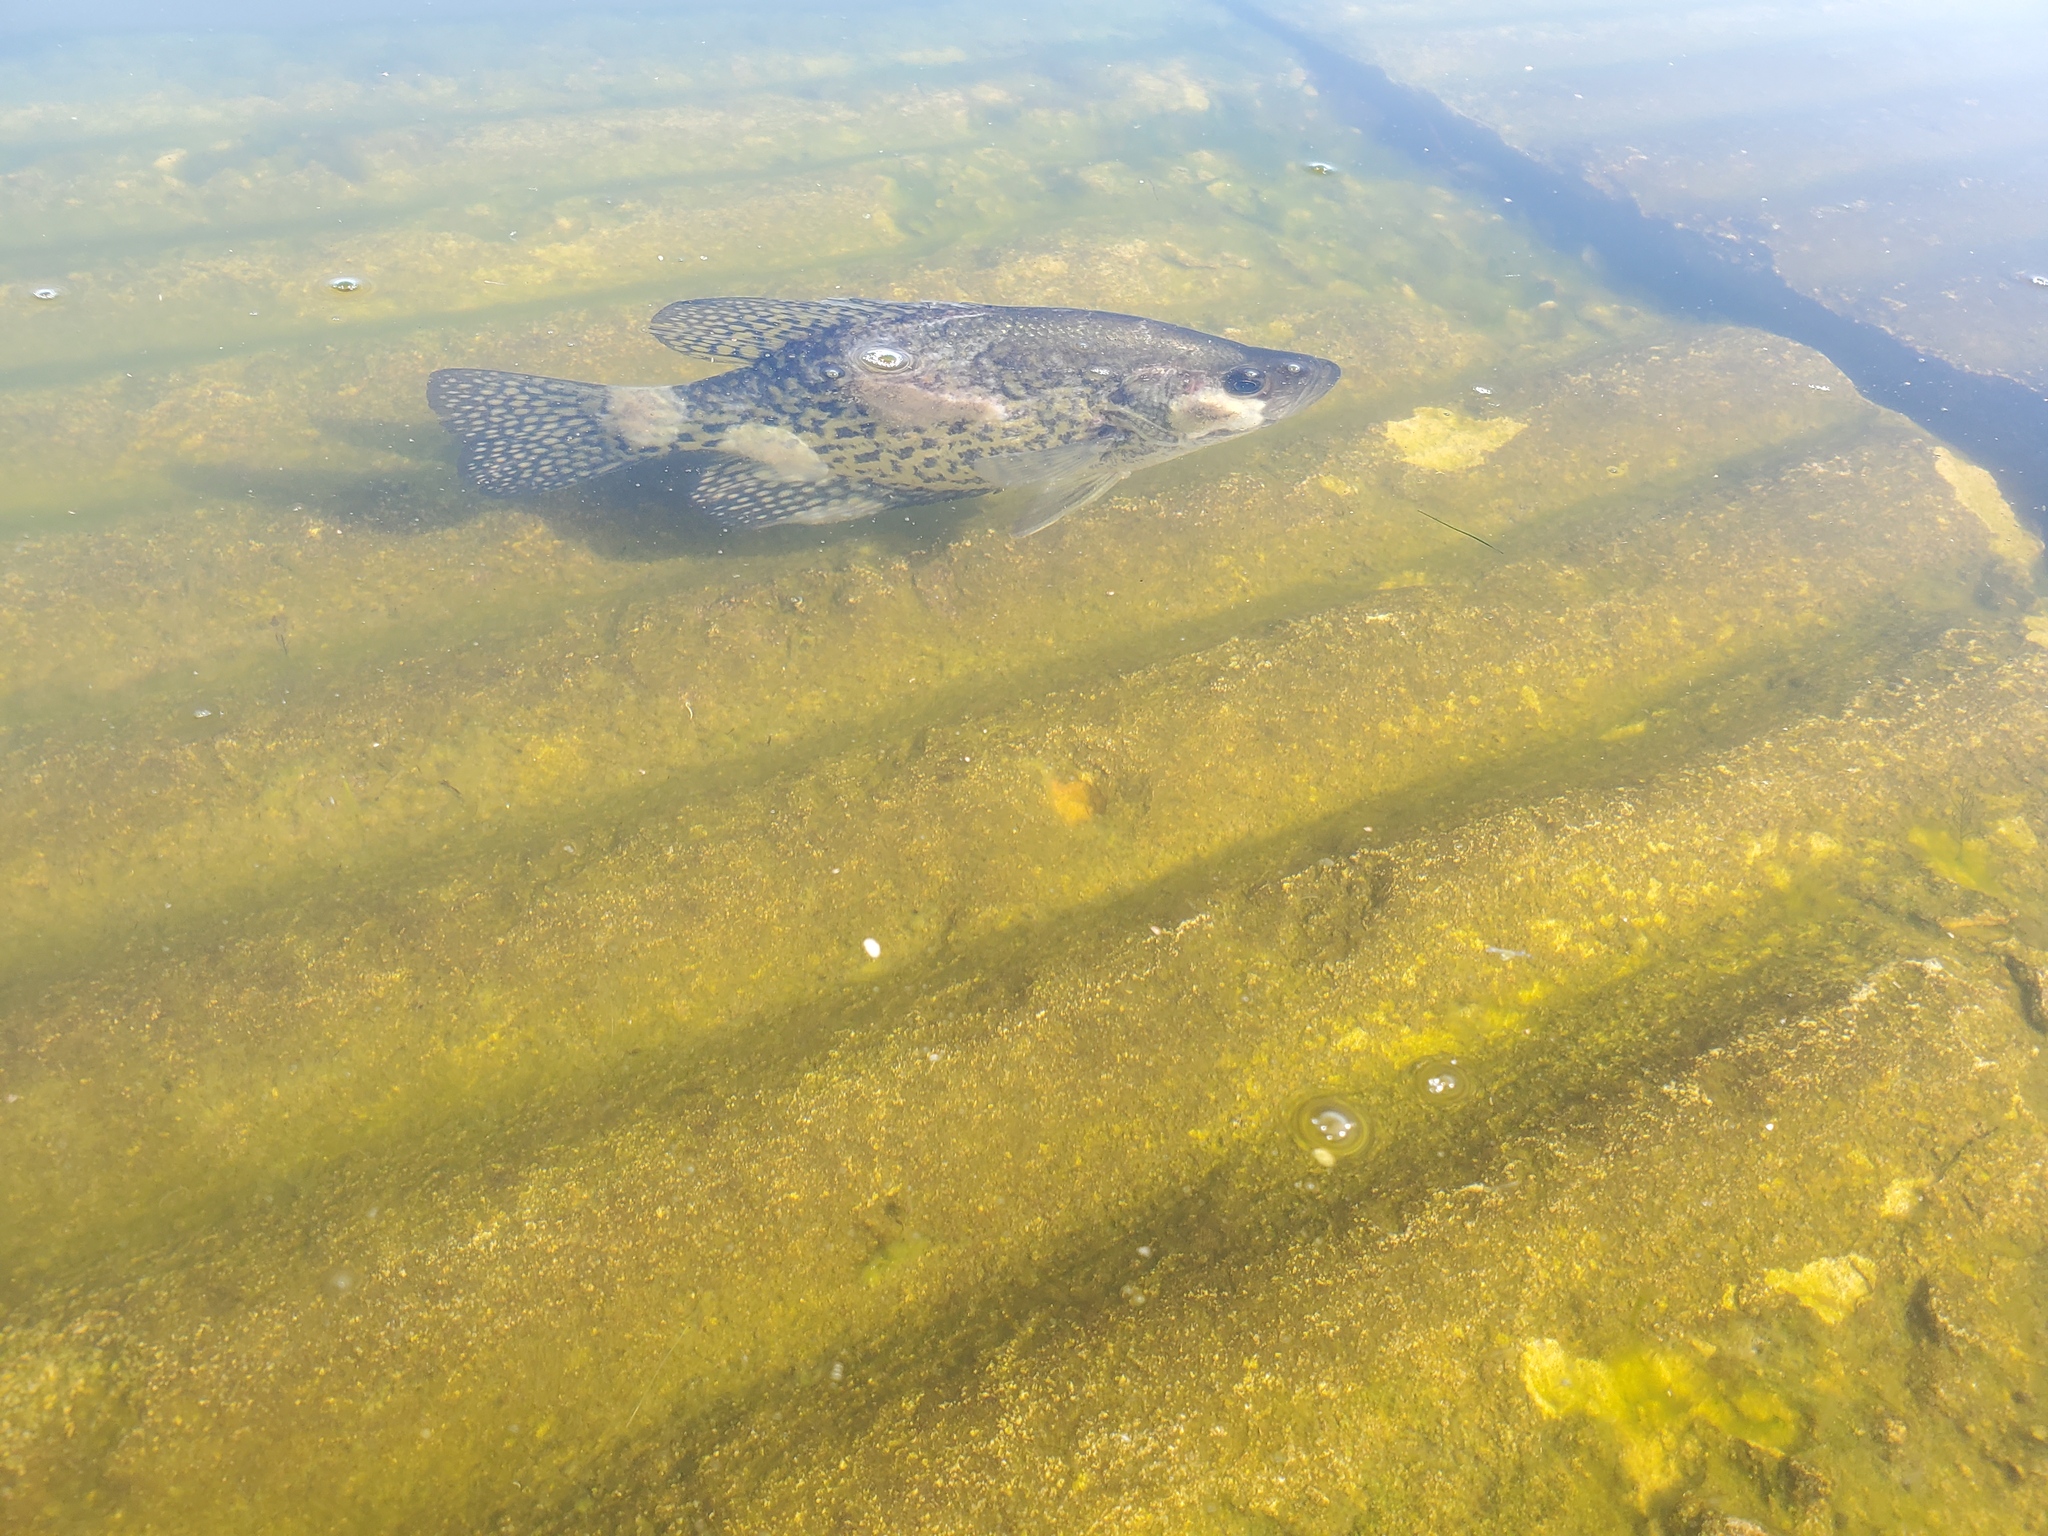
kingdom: Animalia
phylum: Chordata
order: Perciformes
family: Centrarchidae
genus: Pomoxis
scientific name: Pomoxis nigromaculatus
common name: Black crappie
